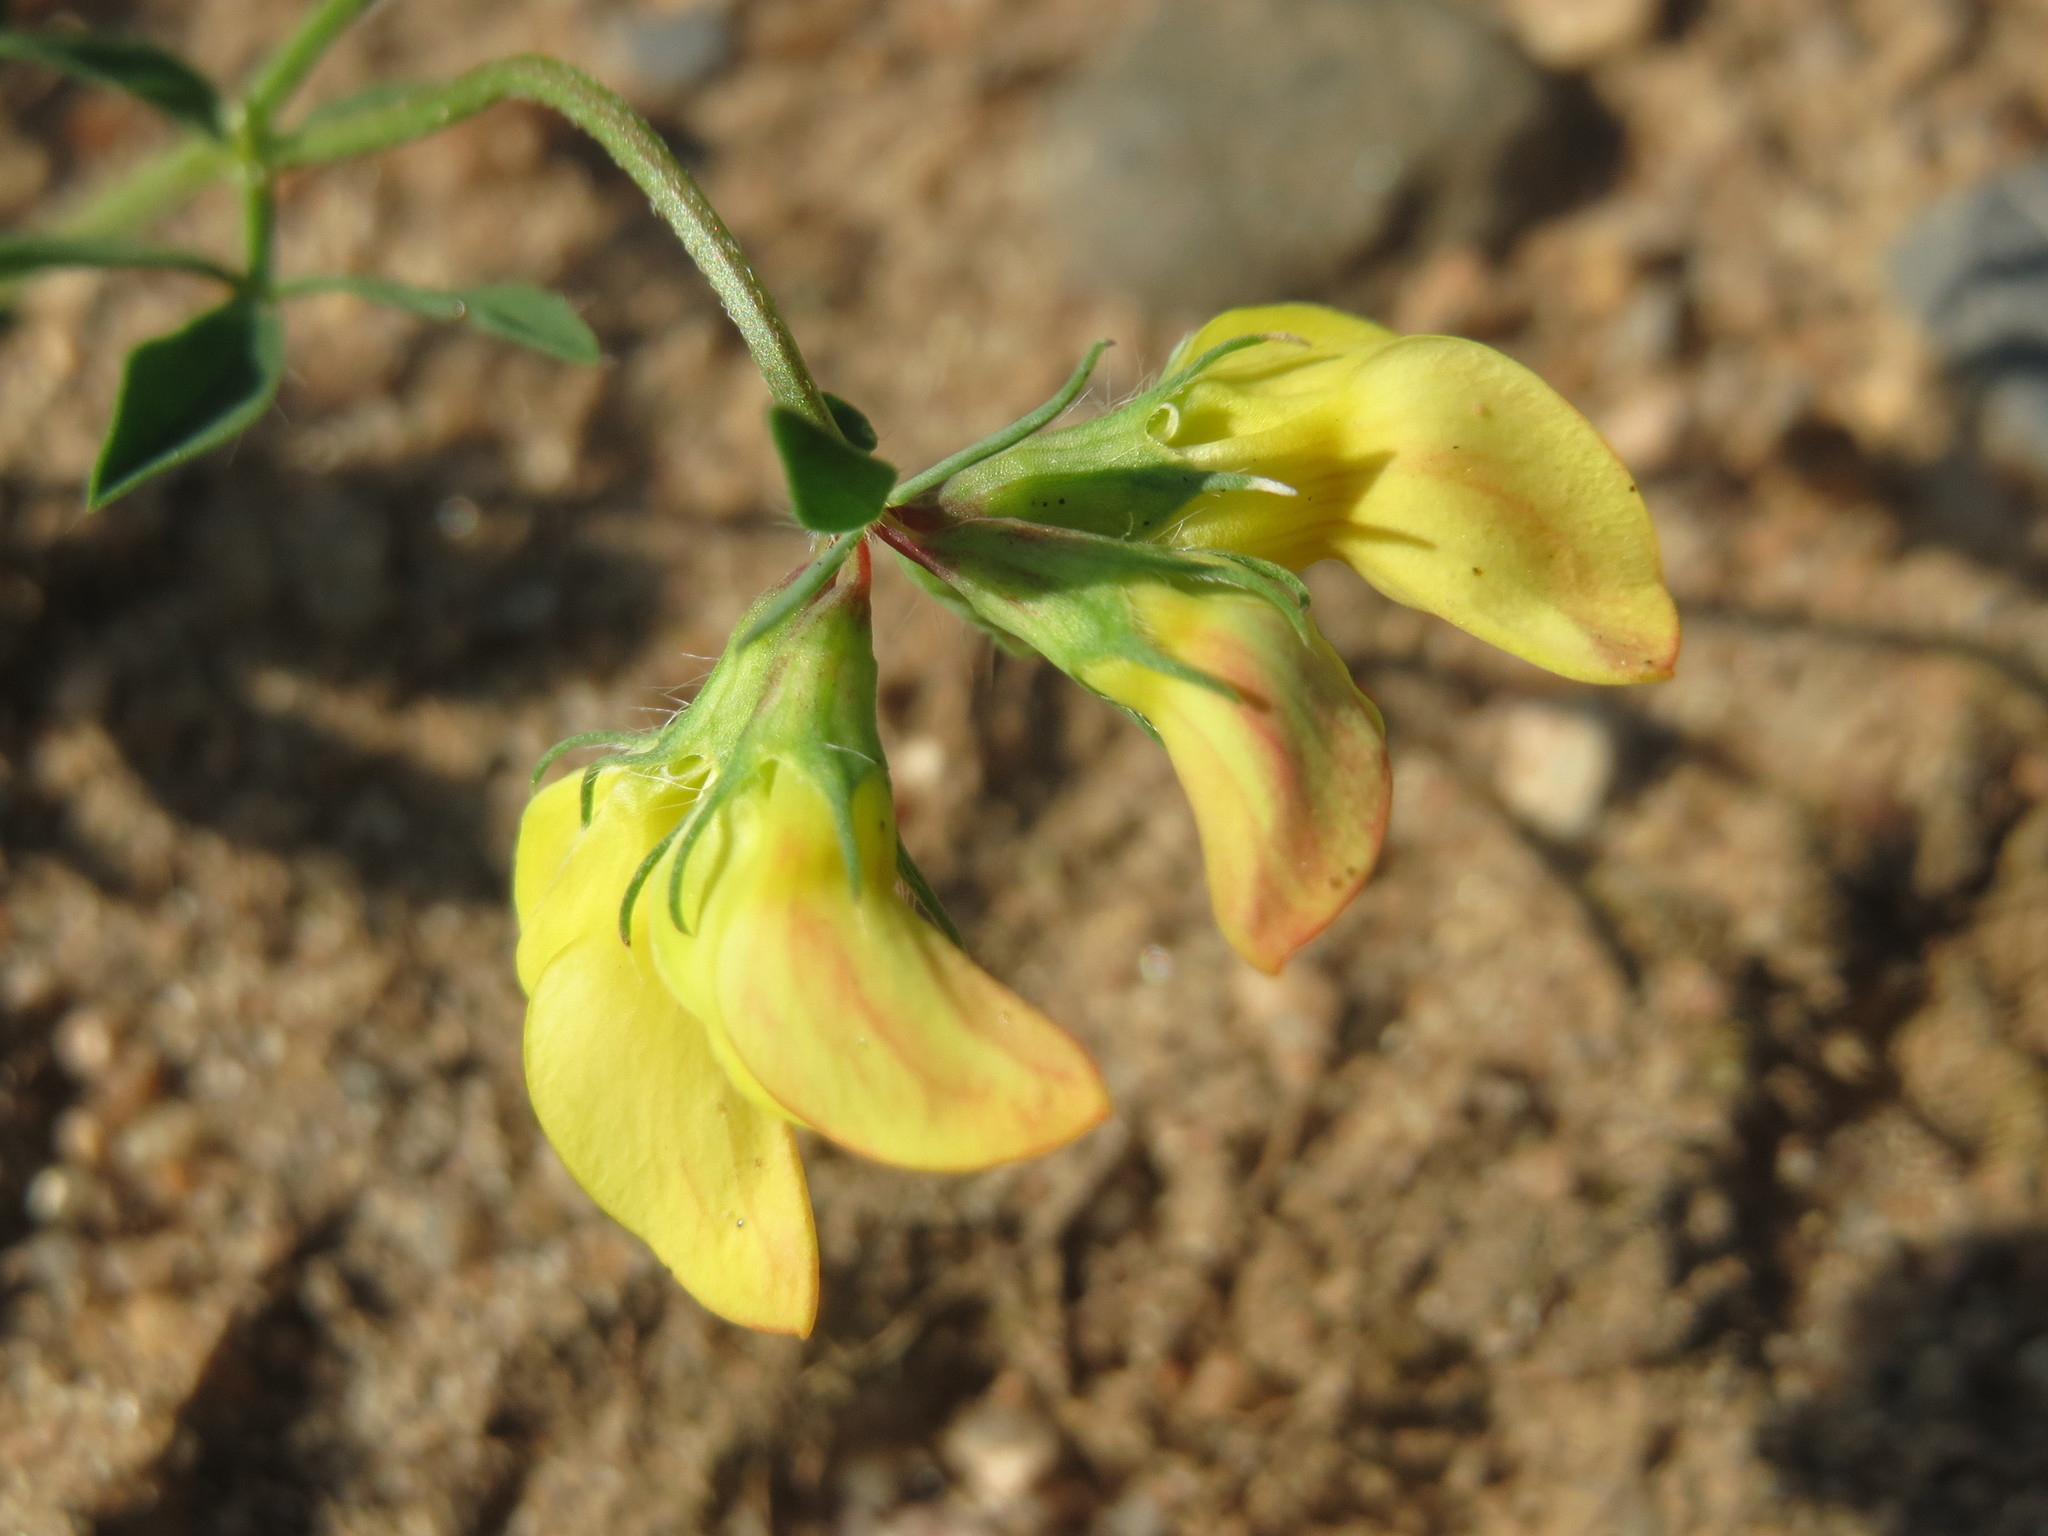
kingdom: Plantae
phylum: Tracheophyta
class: Magnoliopsida
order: Fabales
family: Fabaceae
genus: Lotus
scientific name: Lotus corniculatus
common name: Common bird's-foot-trefoil
